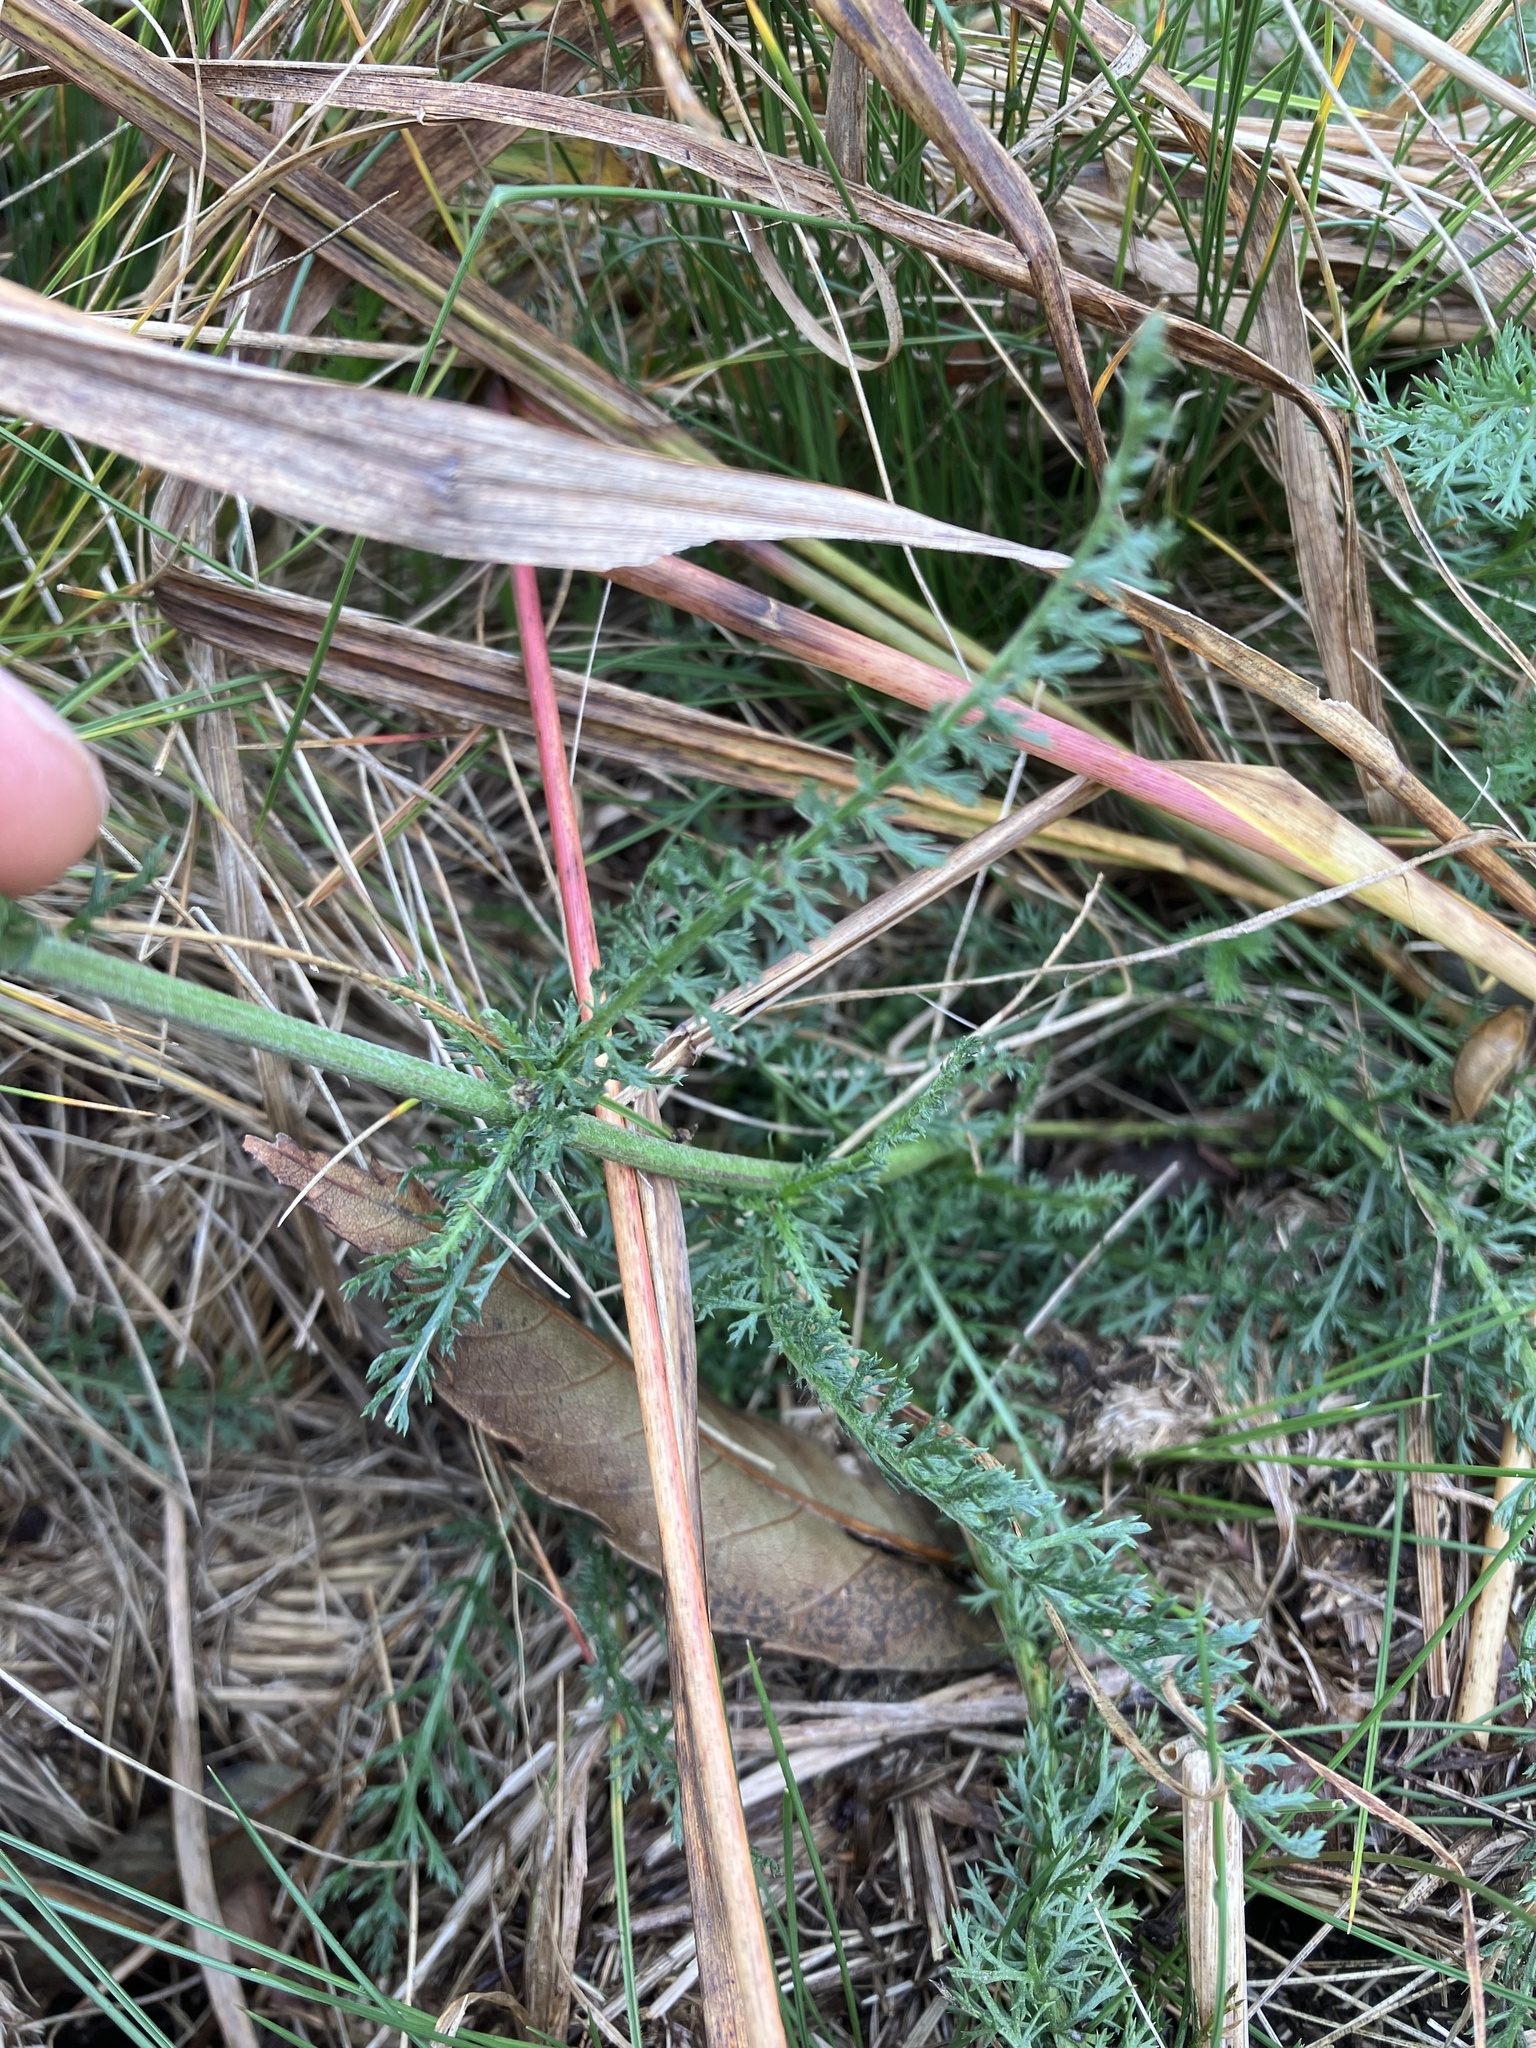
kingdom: Plantae
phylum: Tracheophyta
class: Magnoliopsida
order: Asterales
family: Asteraceae
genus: Achillea
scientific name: Achillea roseoalba
